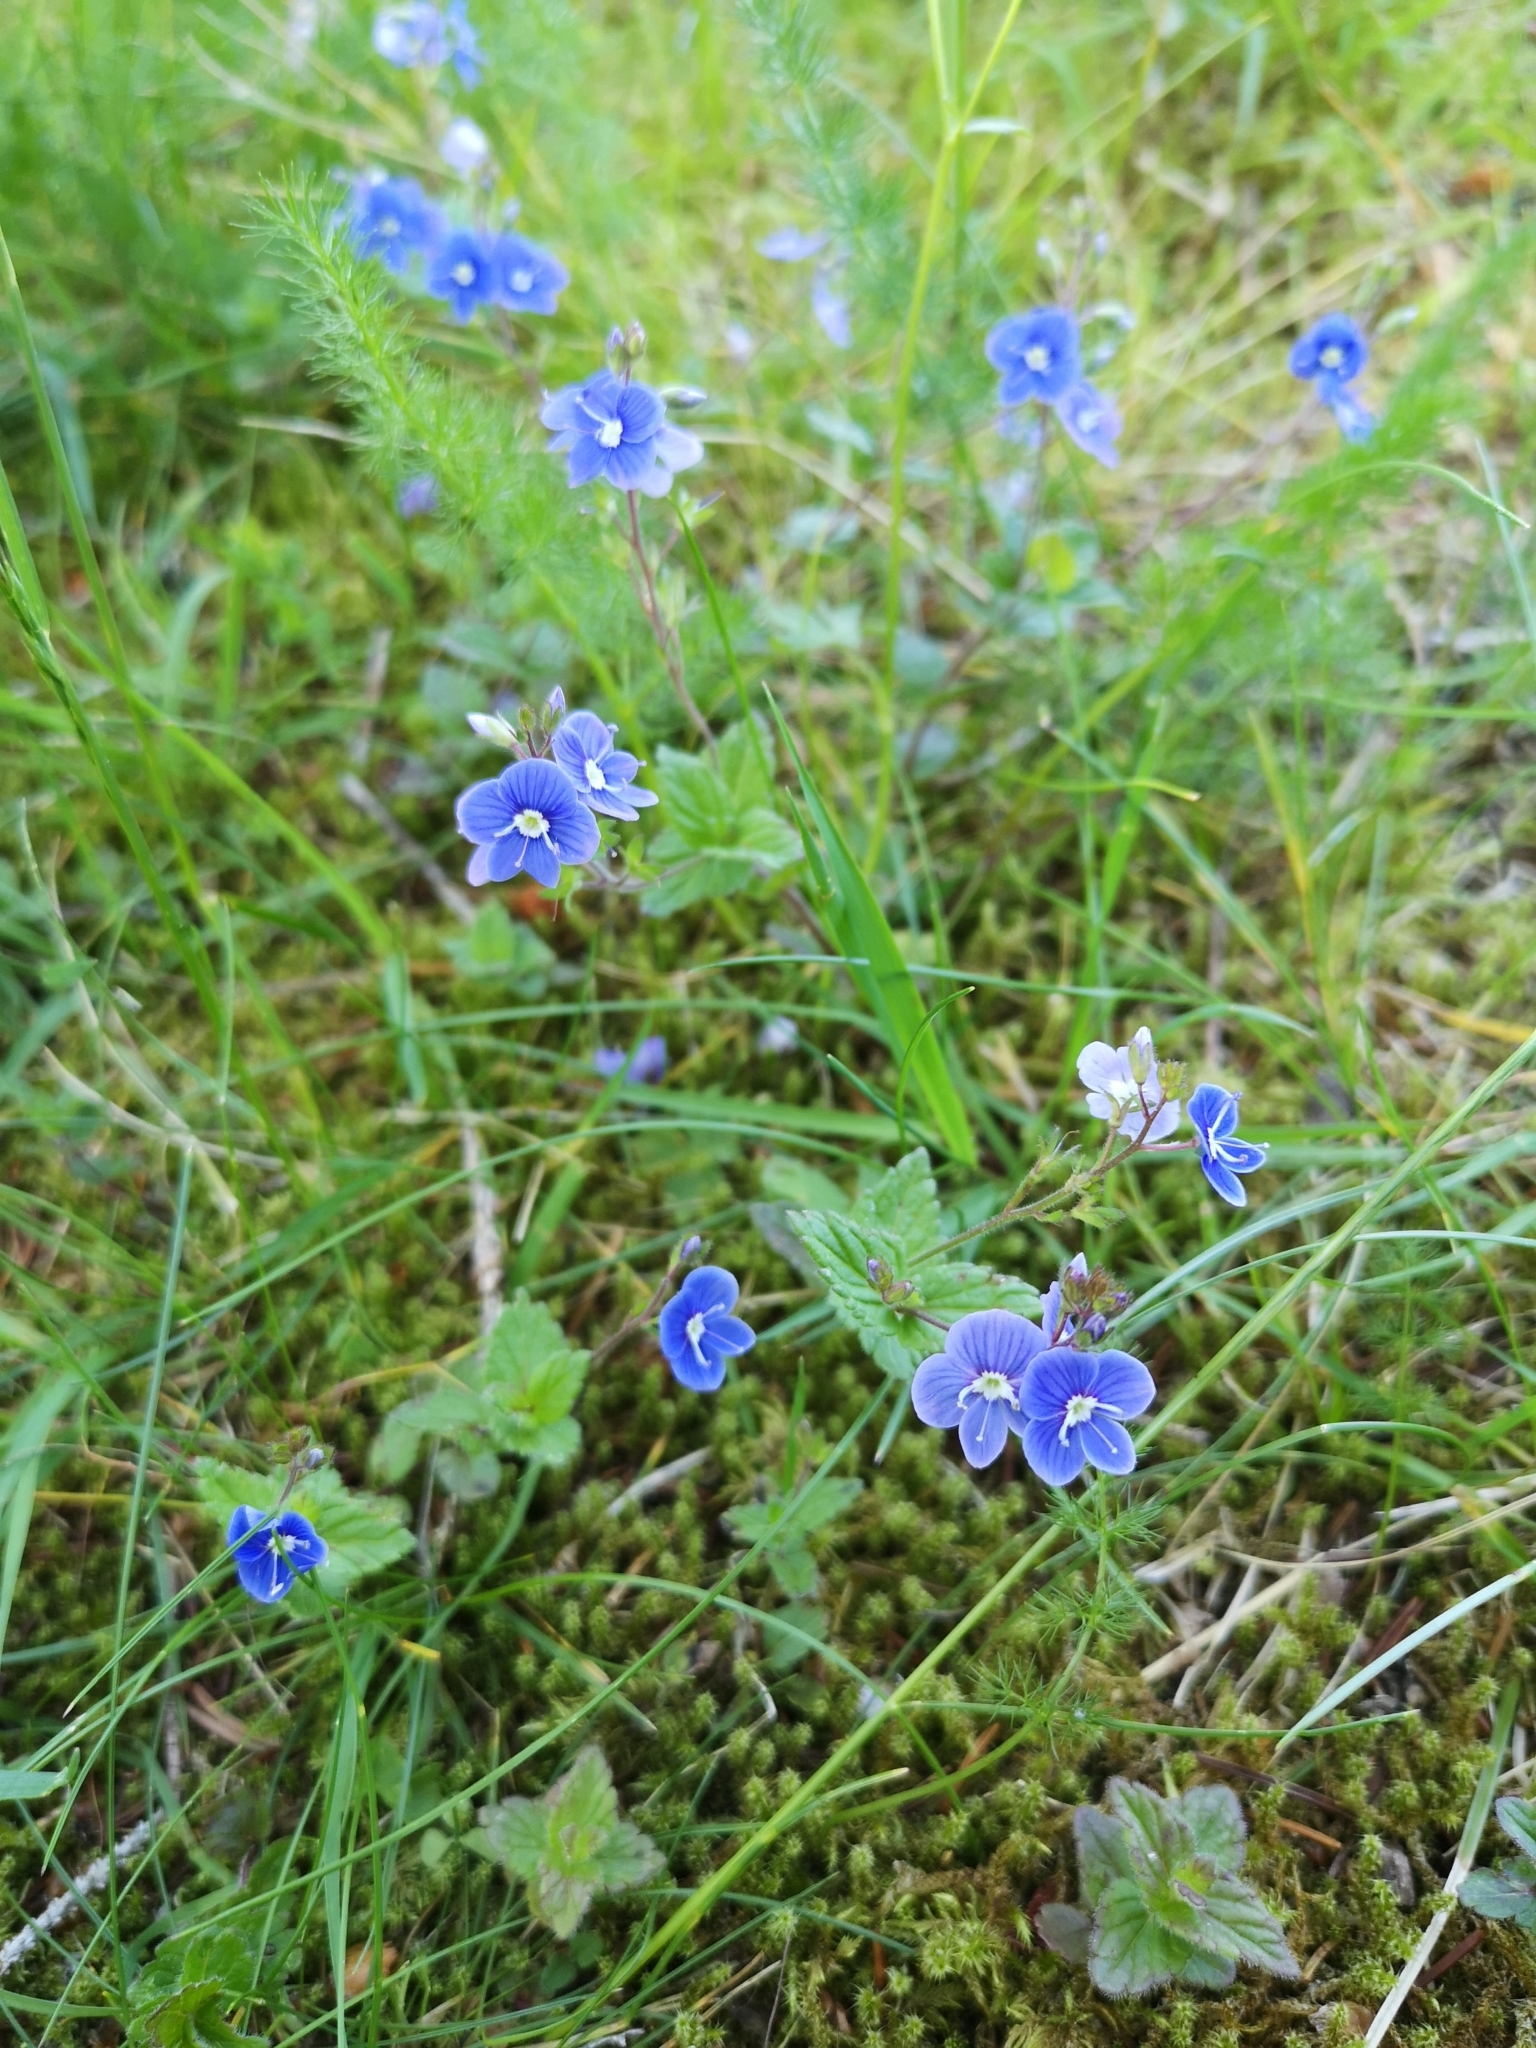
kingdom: Plantae
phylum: Tracheophyta
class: Magnoliopsida
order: Lamiales
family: Plantaginaceae
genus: Veronica
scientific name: Veronica chamaedrys
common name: Germander speedwell
